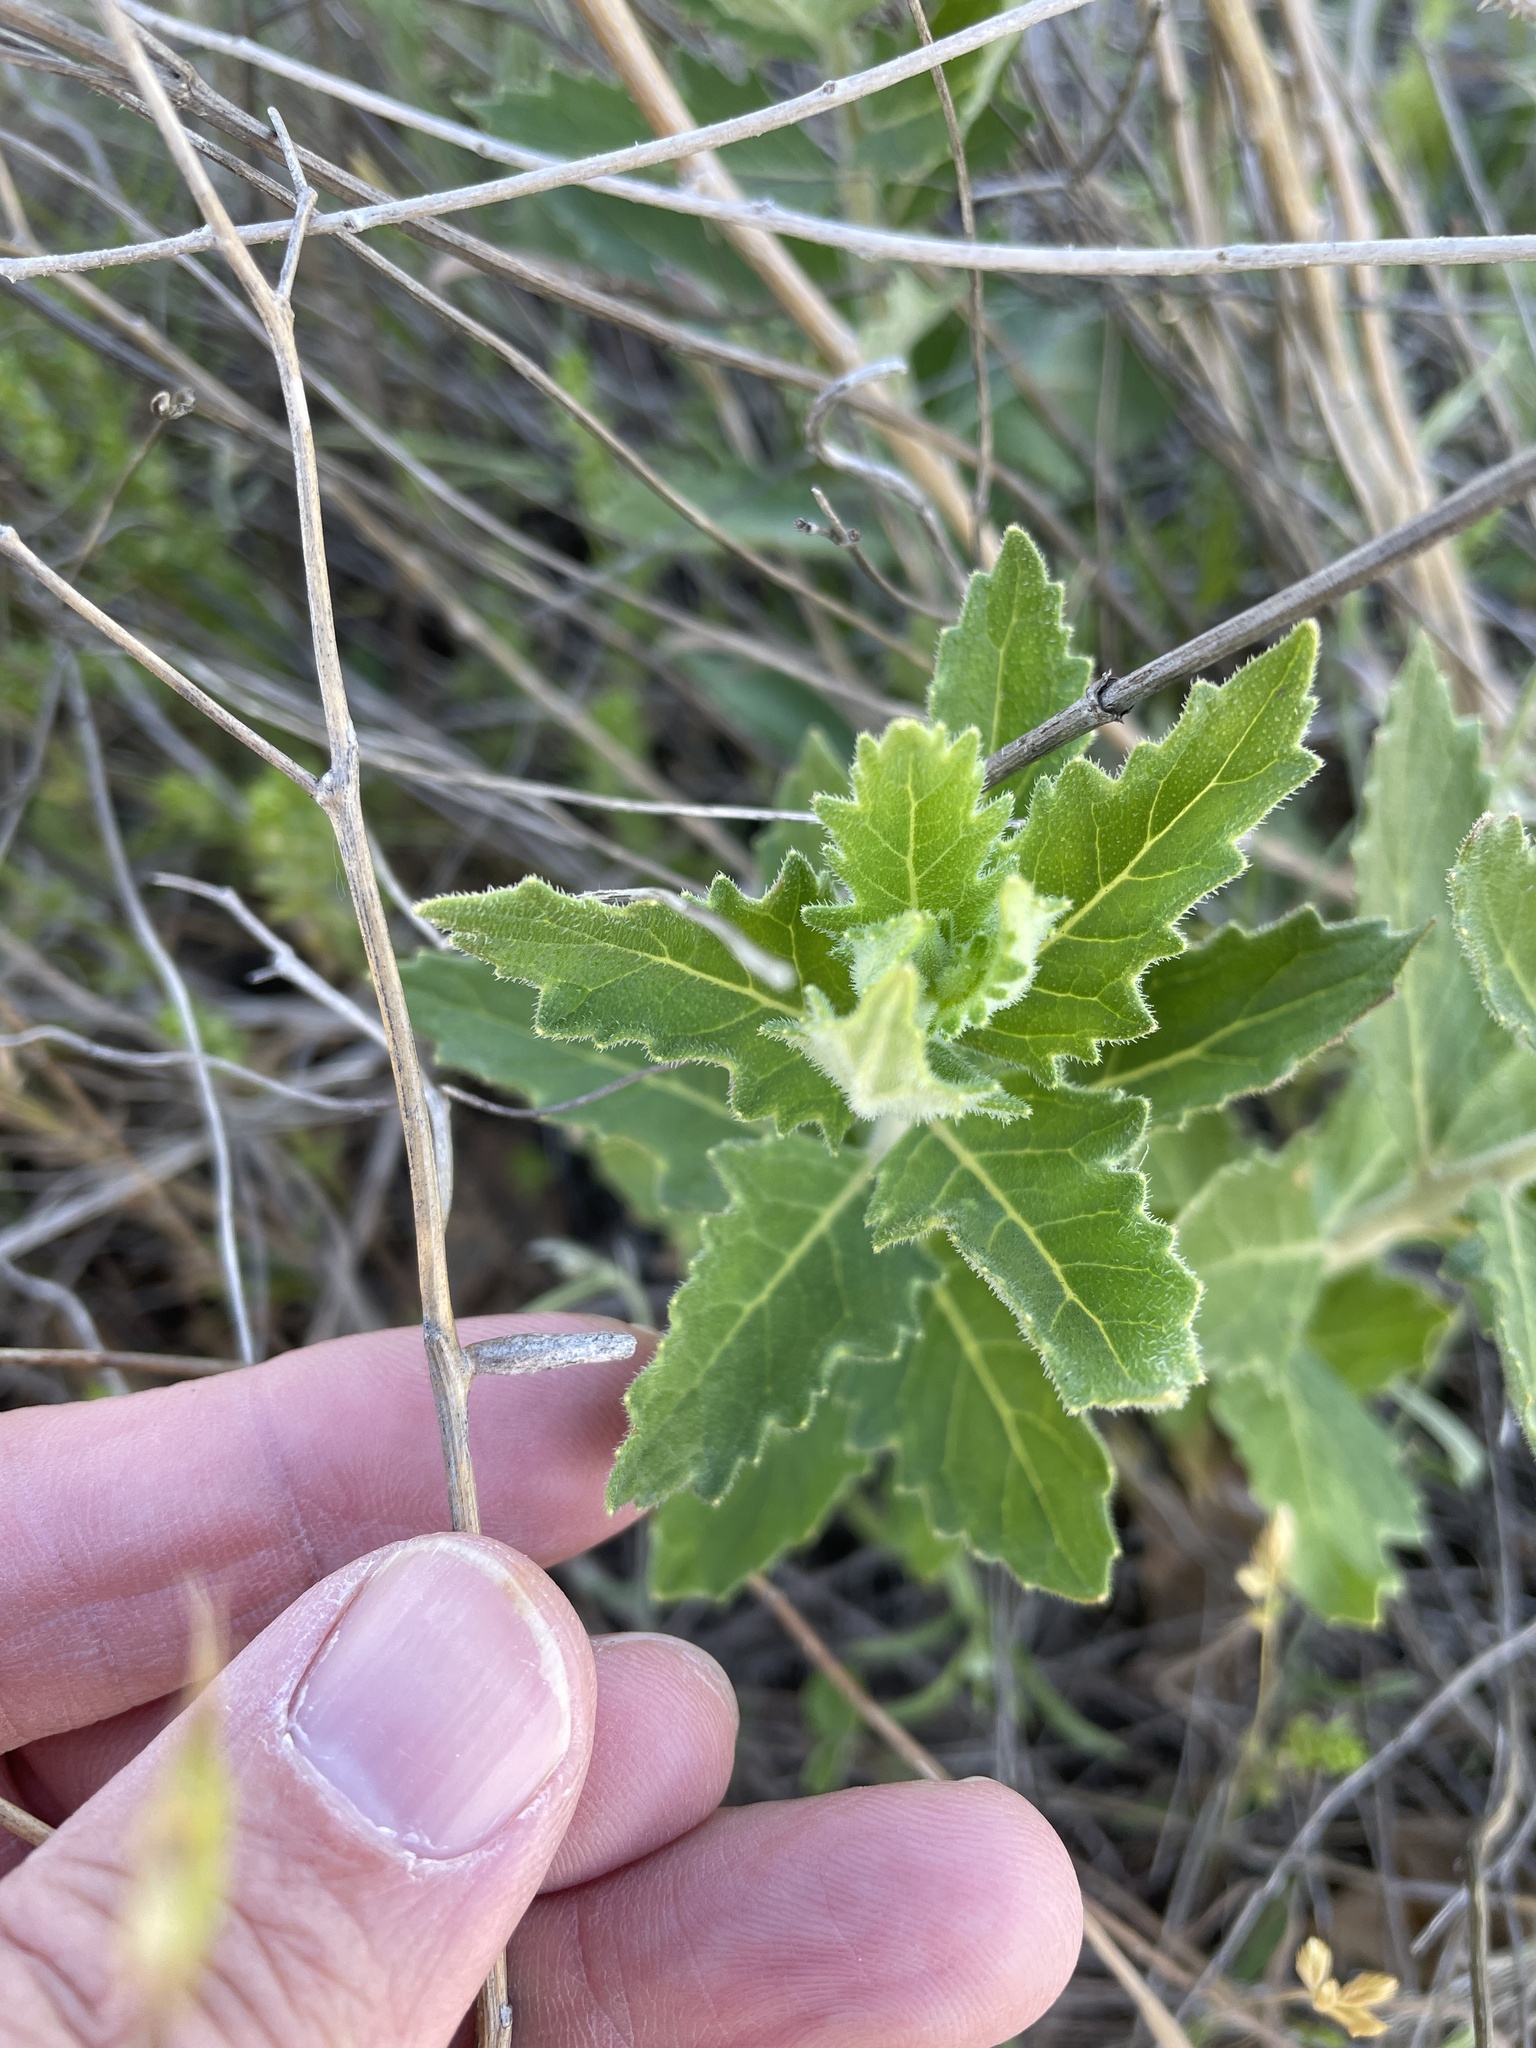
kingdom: Plantae
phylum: Tracheophyta
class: Magnoliopsida
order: Cornales
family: Loasaceae
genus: Mentzelia
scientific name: Mentzelia oligosperma
